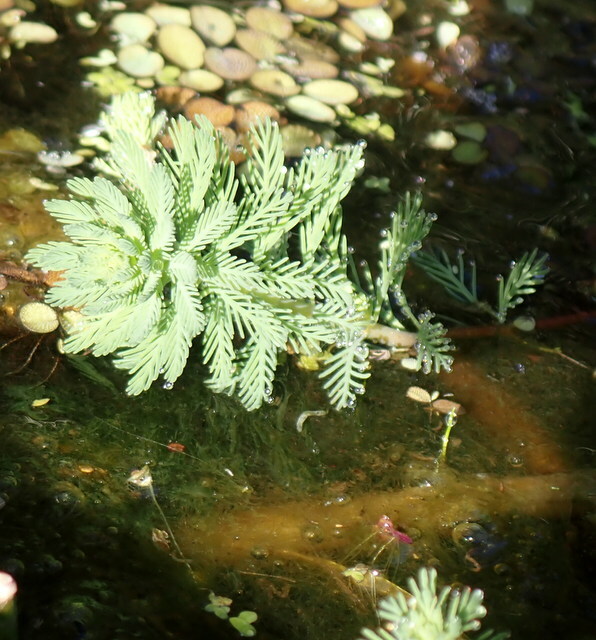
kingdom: Plantae
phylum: Tracheophyta
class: Magnoliopsida
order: Saxifragales
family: Haloragaceae
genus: Myriophyllum
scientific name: Myriophyllum aquaticum
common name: Parrot's feather
